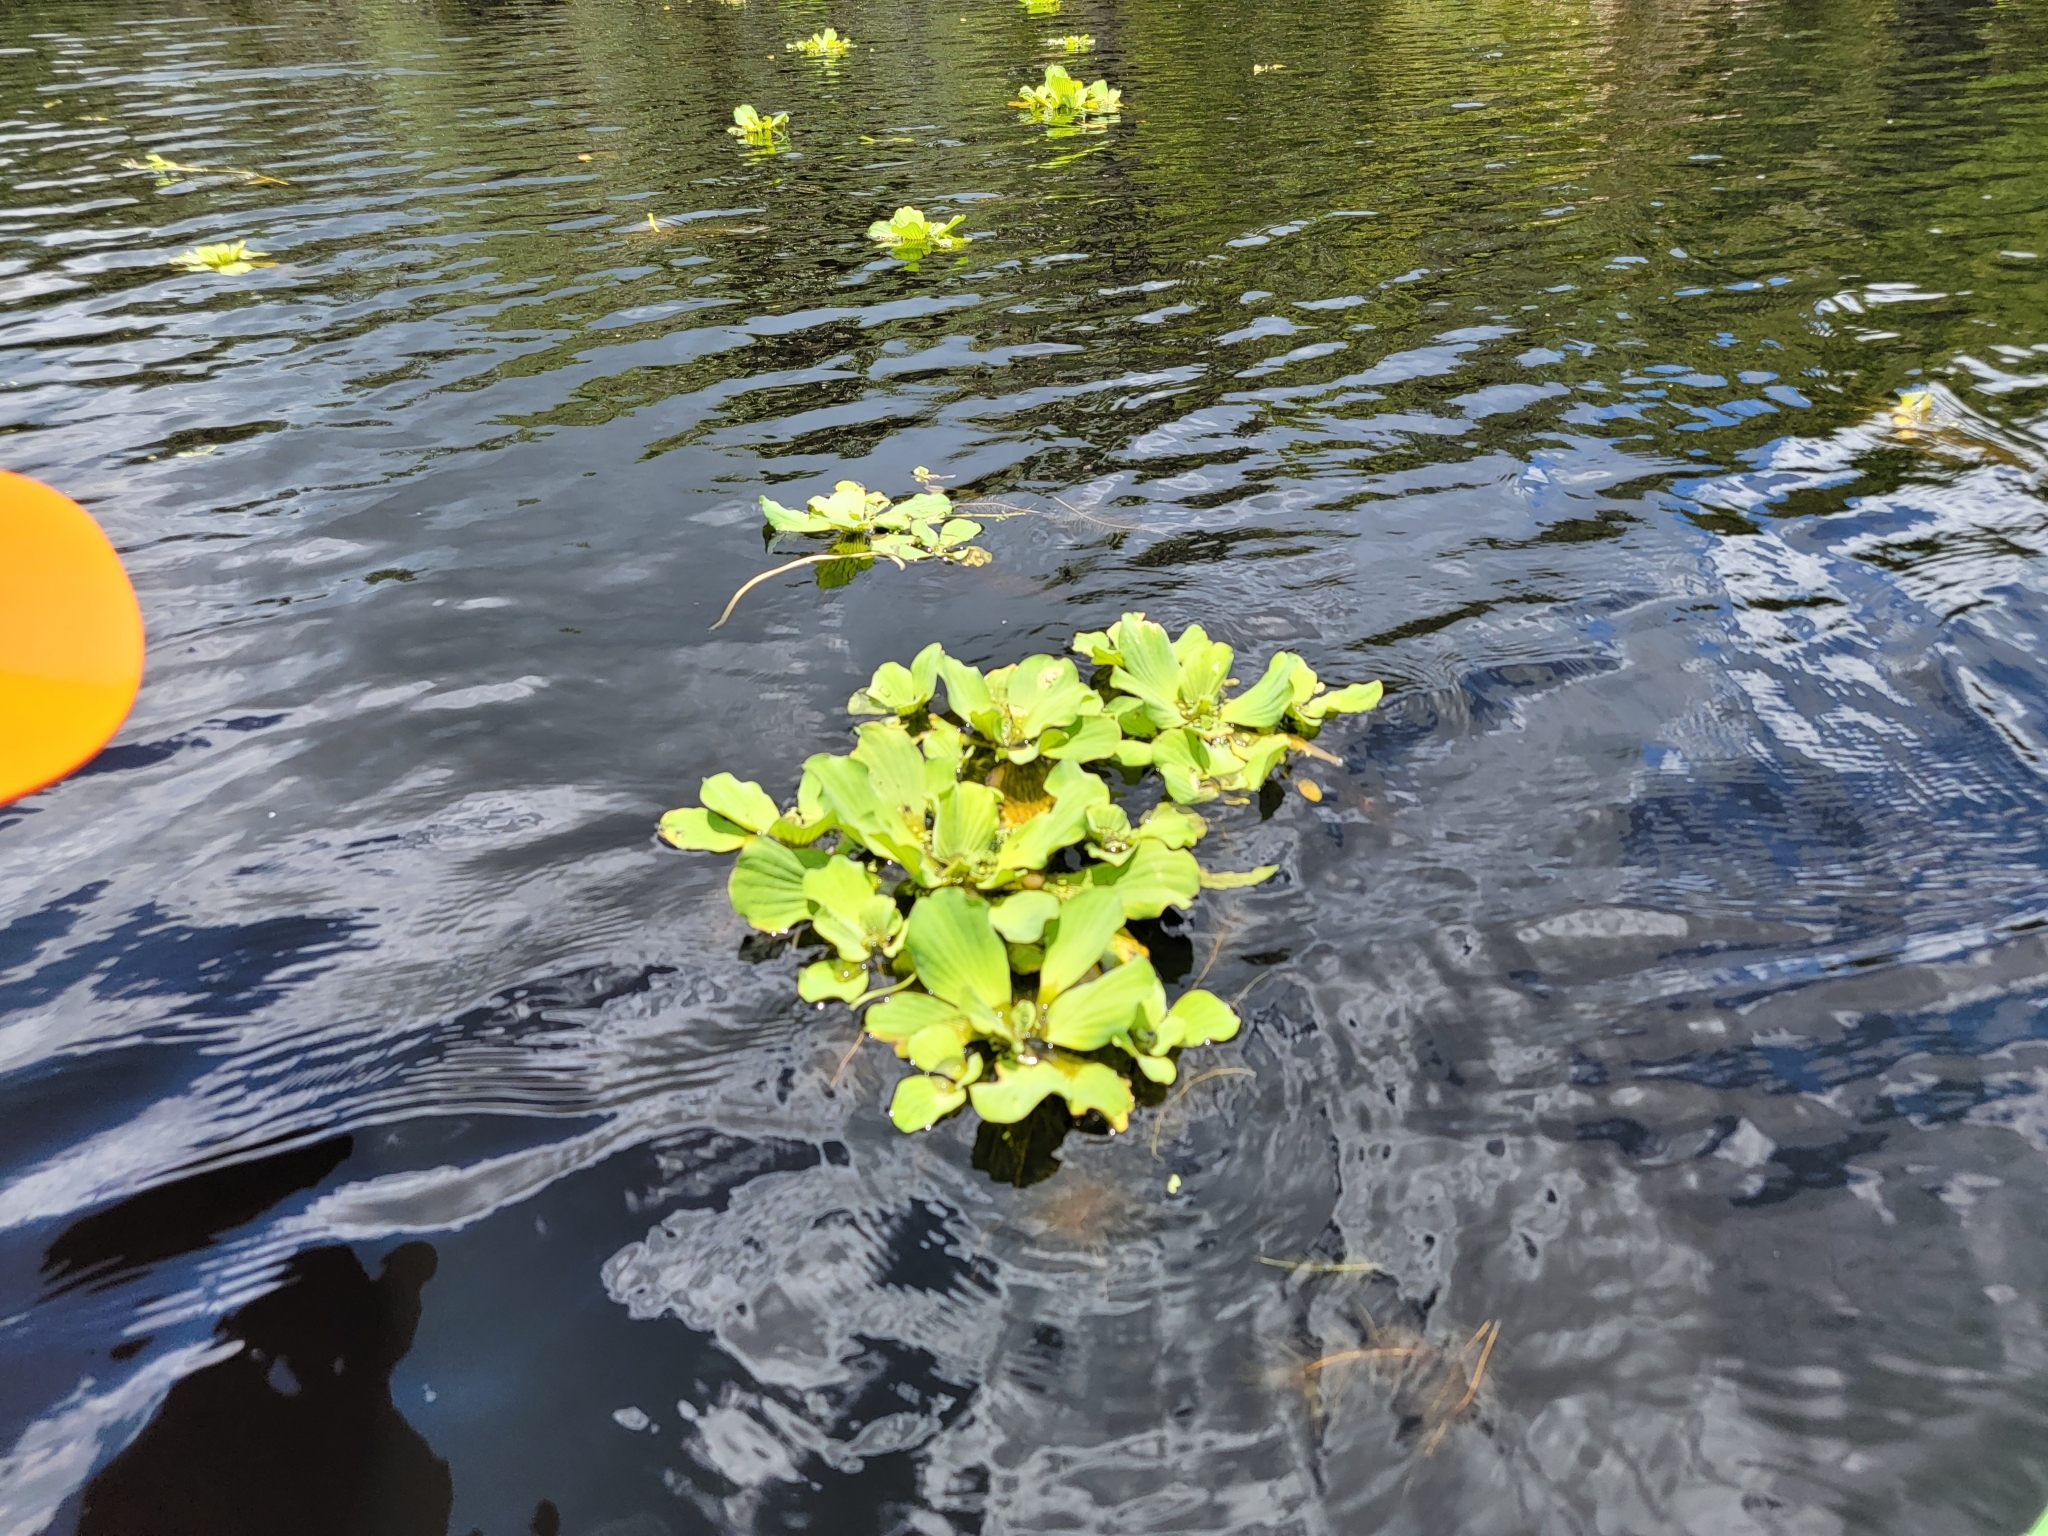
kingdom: Plantae
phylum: Tracheophyta
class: Liliopsida
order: Alismatales
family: Araceae
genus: Pistia
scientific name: Pistia stratiotes
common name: Water lettuce
